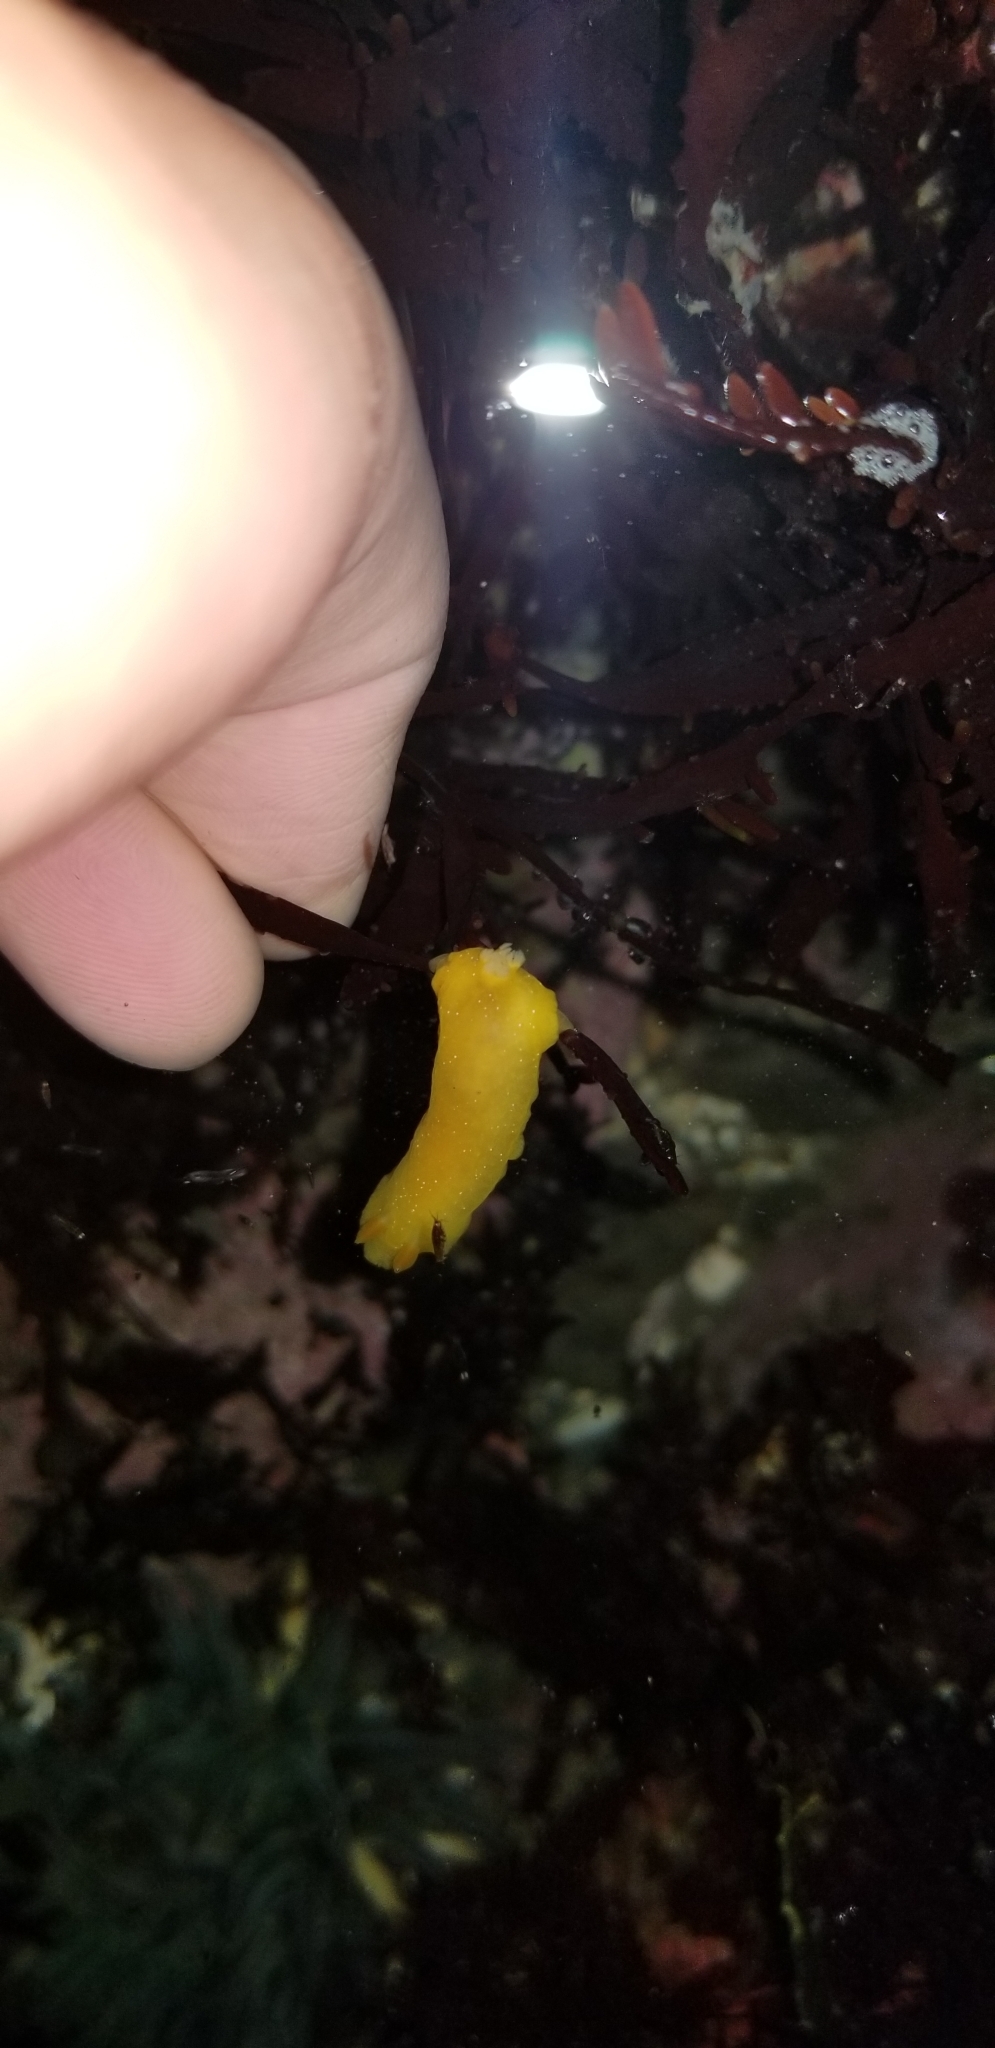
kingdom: Animalia
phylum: Mollusca
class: Gastropoda
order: Nudibranchia
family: Dendrodorididae
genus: Doriopsilla
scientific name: Doriopsilla fulva
